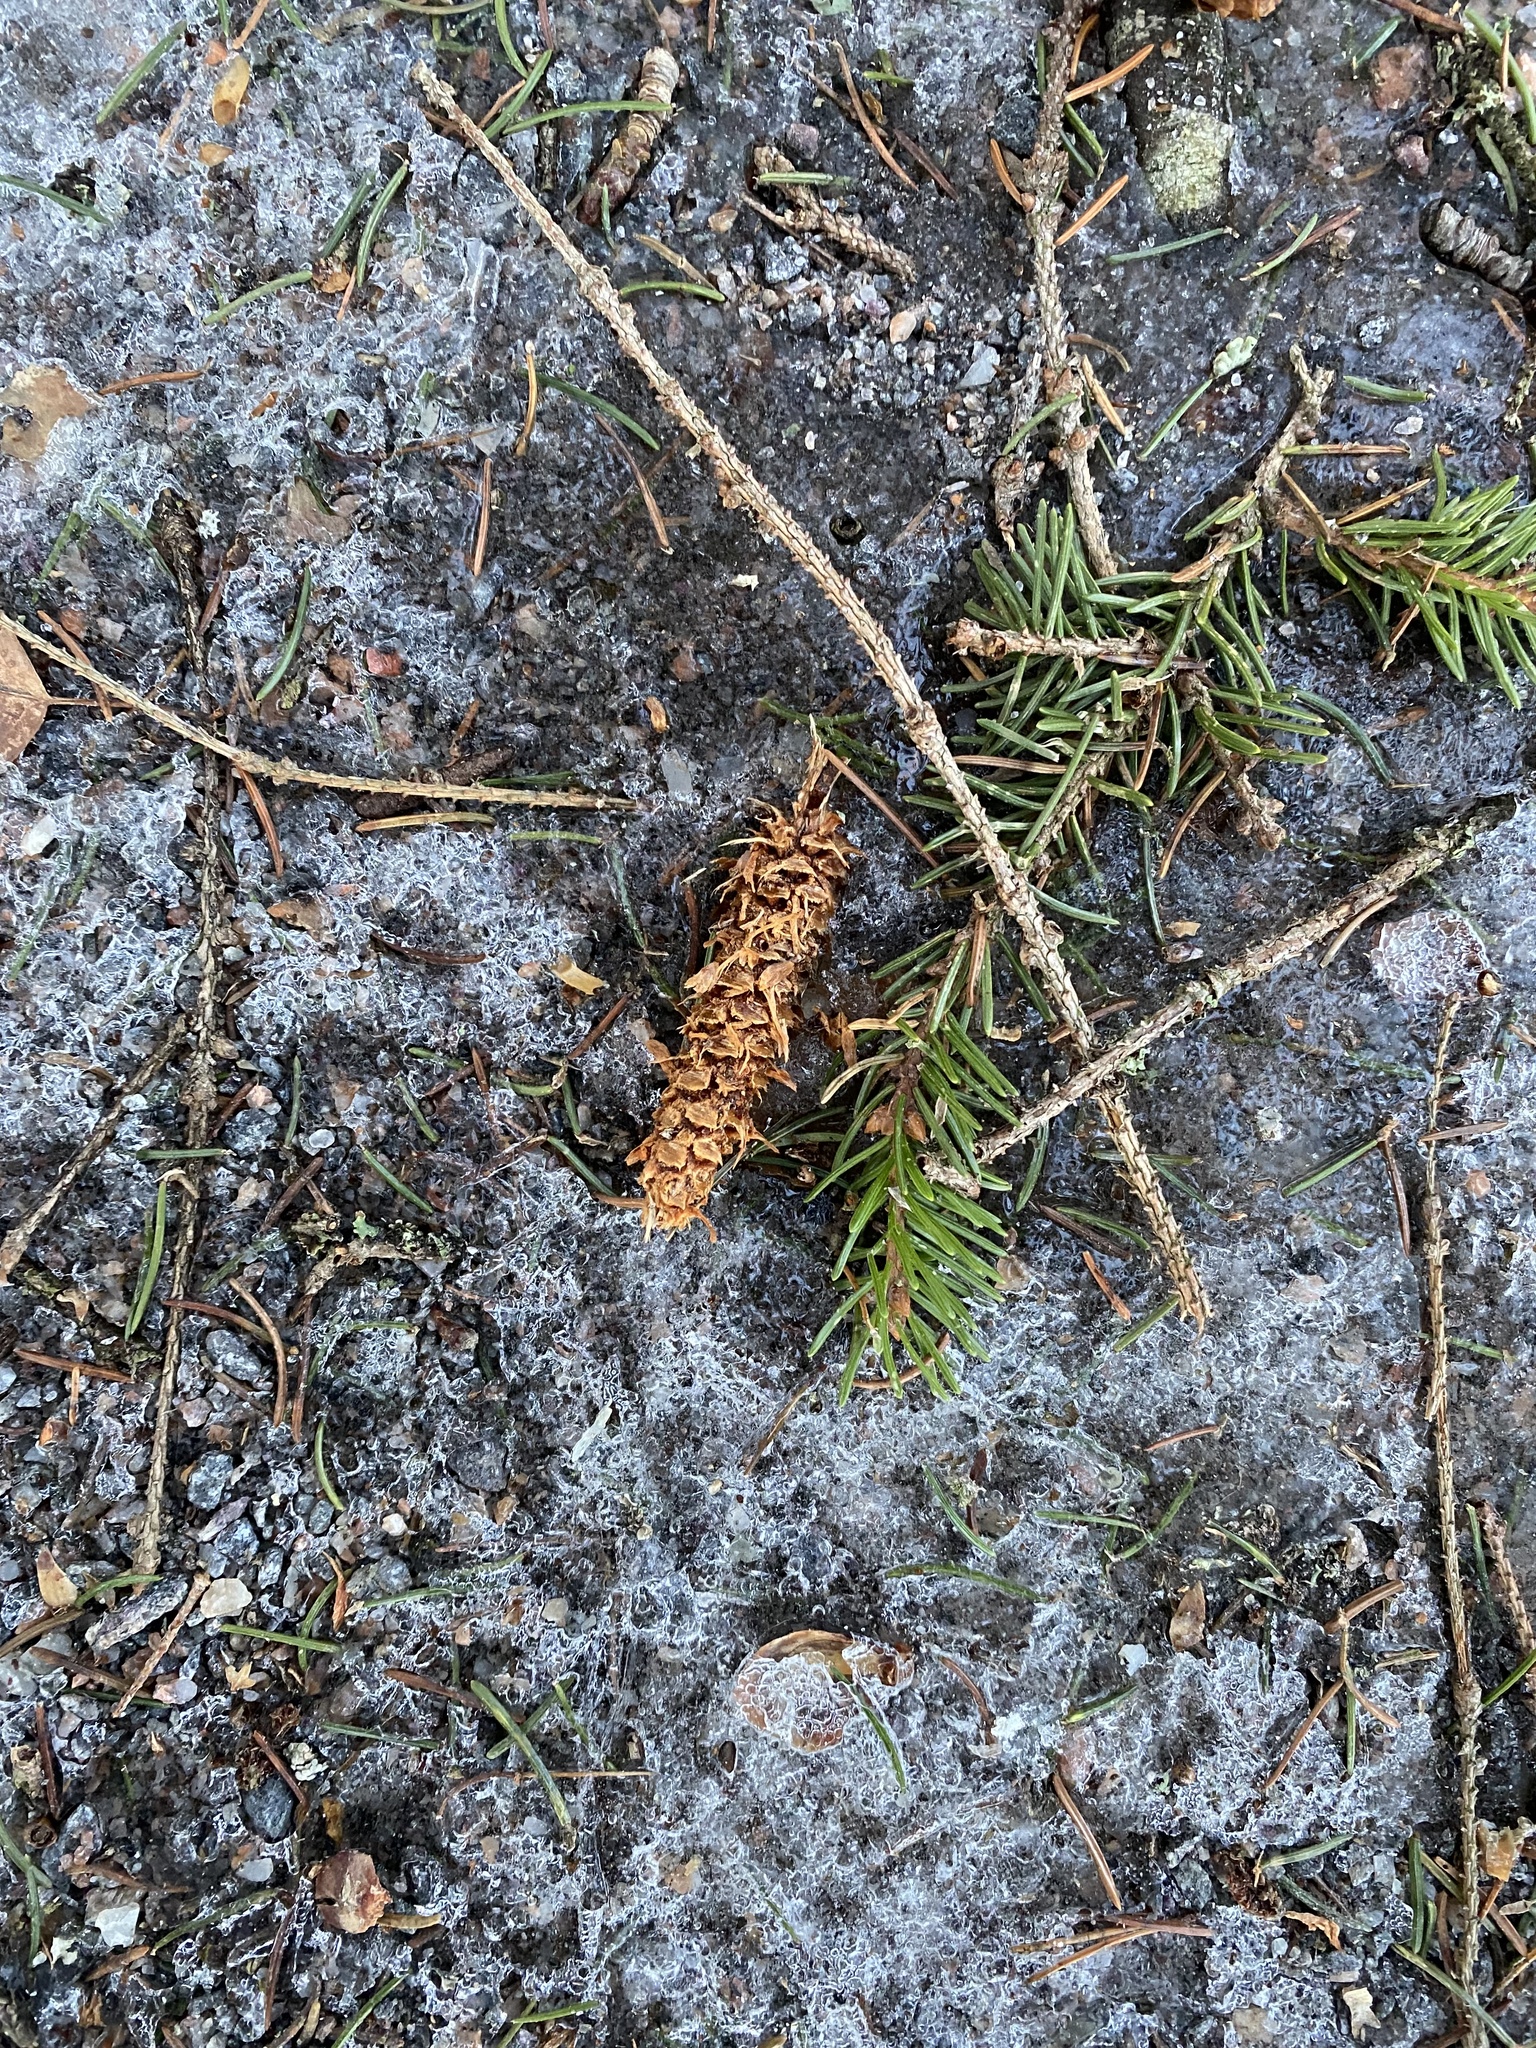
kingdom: Animalia
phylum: Chordata
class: Mammalia
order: Rodentia
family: Sciuridae
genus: Sciurus
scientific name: Sciurus vulgaris
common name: Eurasian red squirrel
